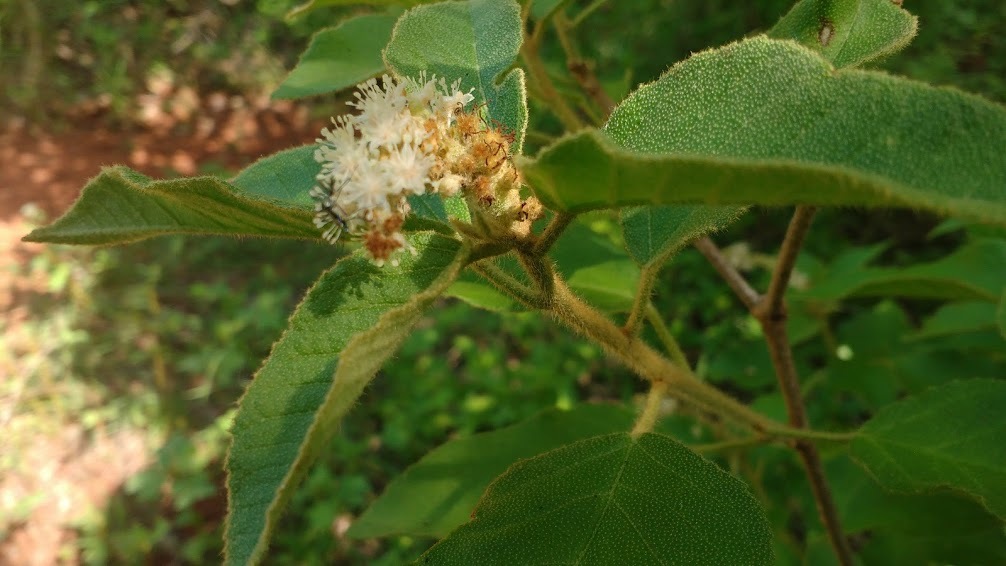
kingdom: Plantae
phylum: Tracheophyta
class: Magnoliopsida
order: Malpighiales
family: Euphorbiaceae
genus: Croton
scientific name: Croton heliotropiifolius
